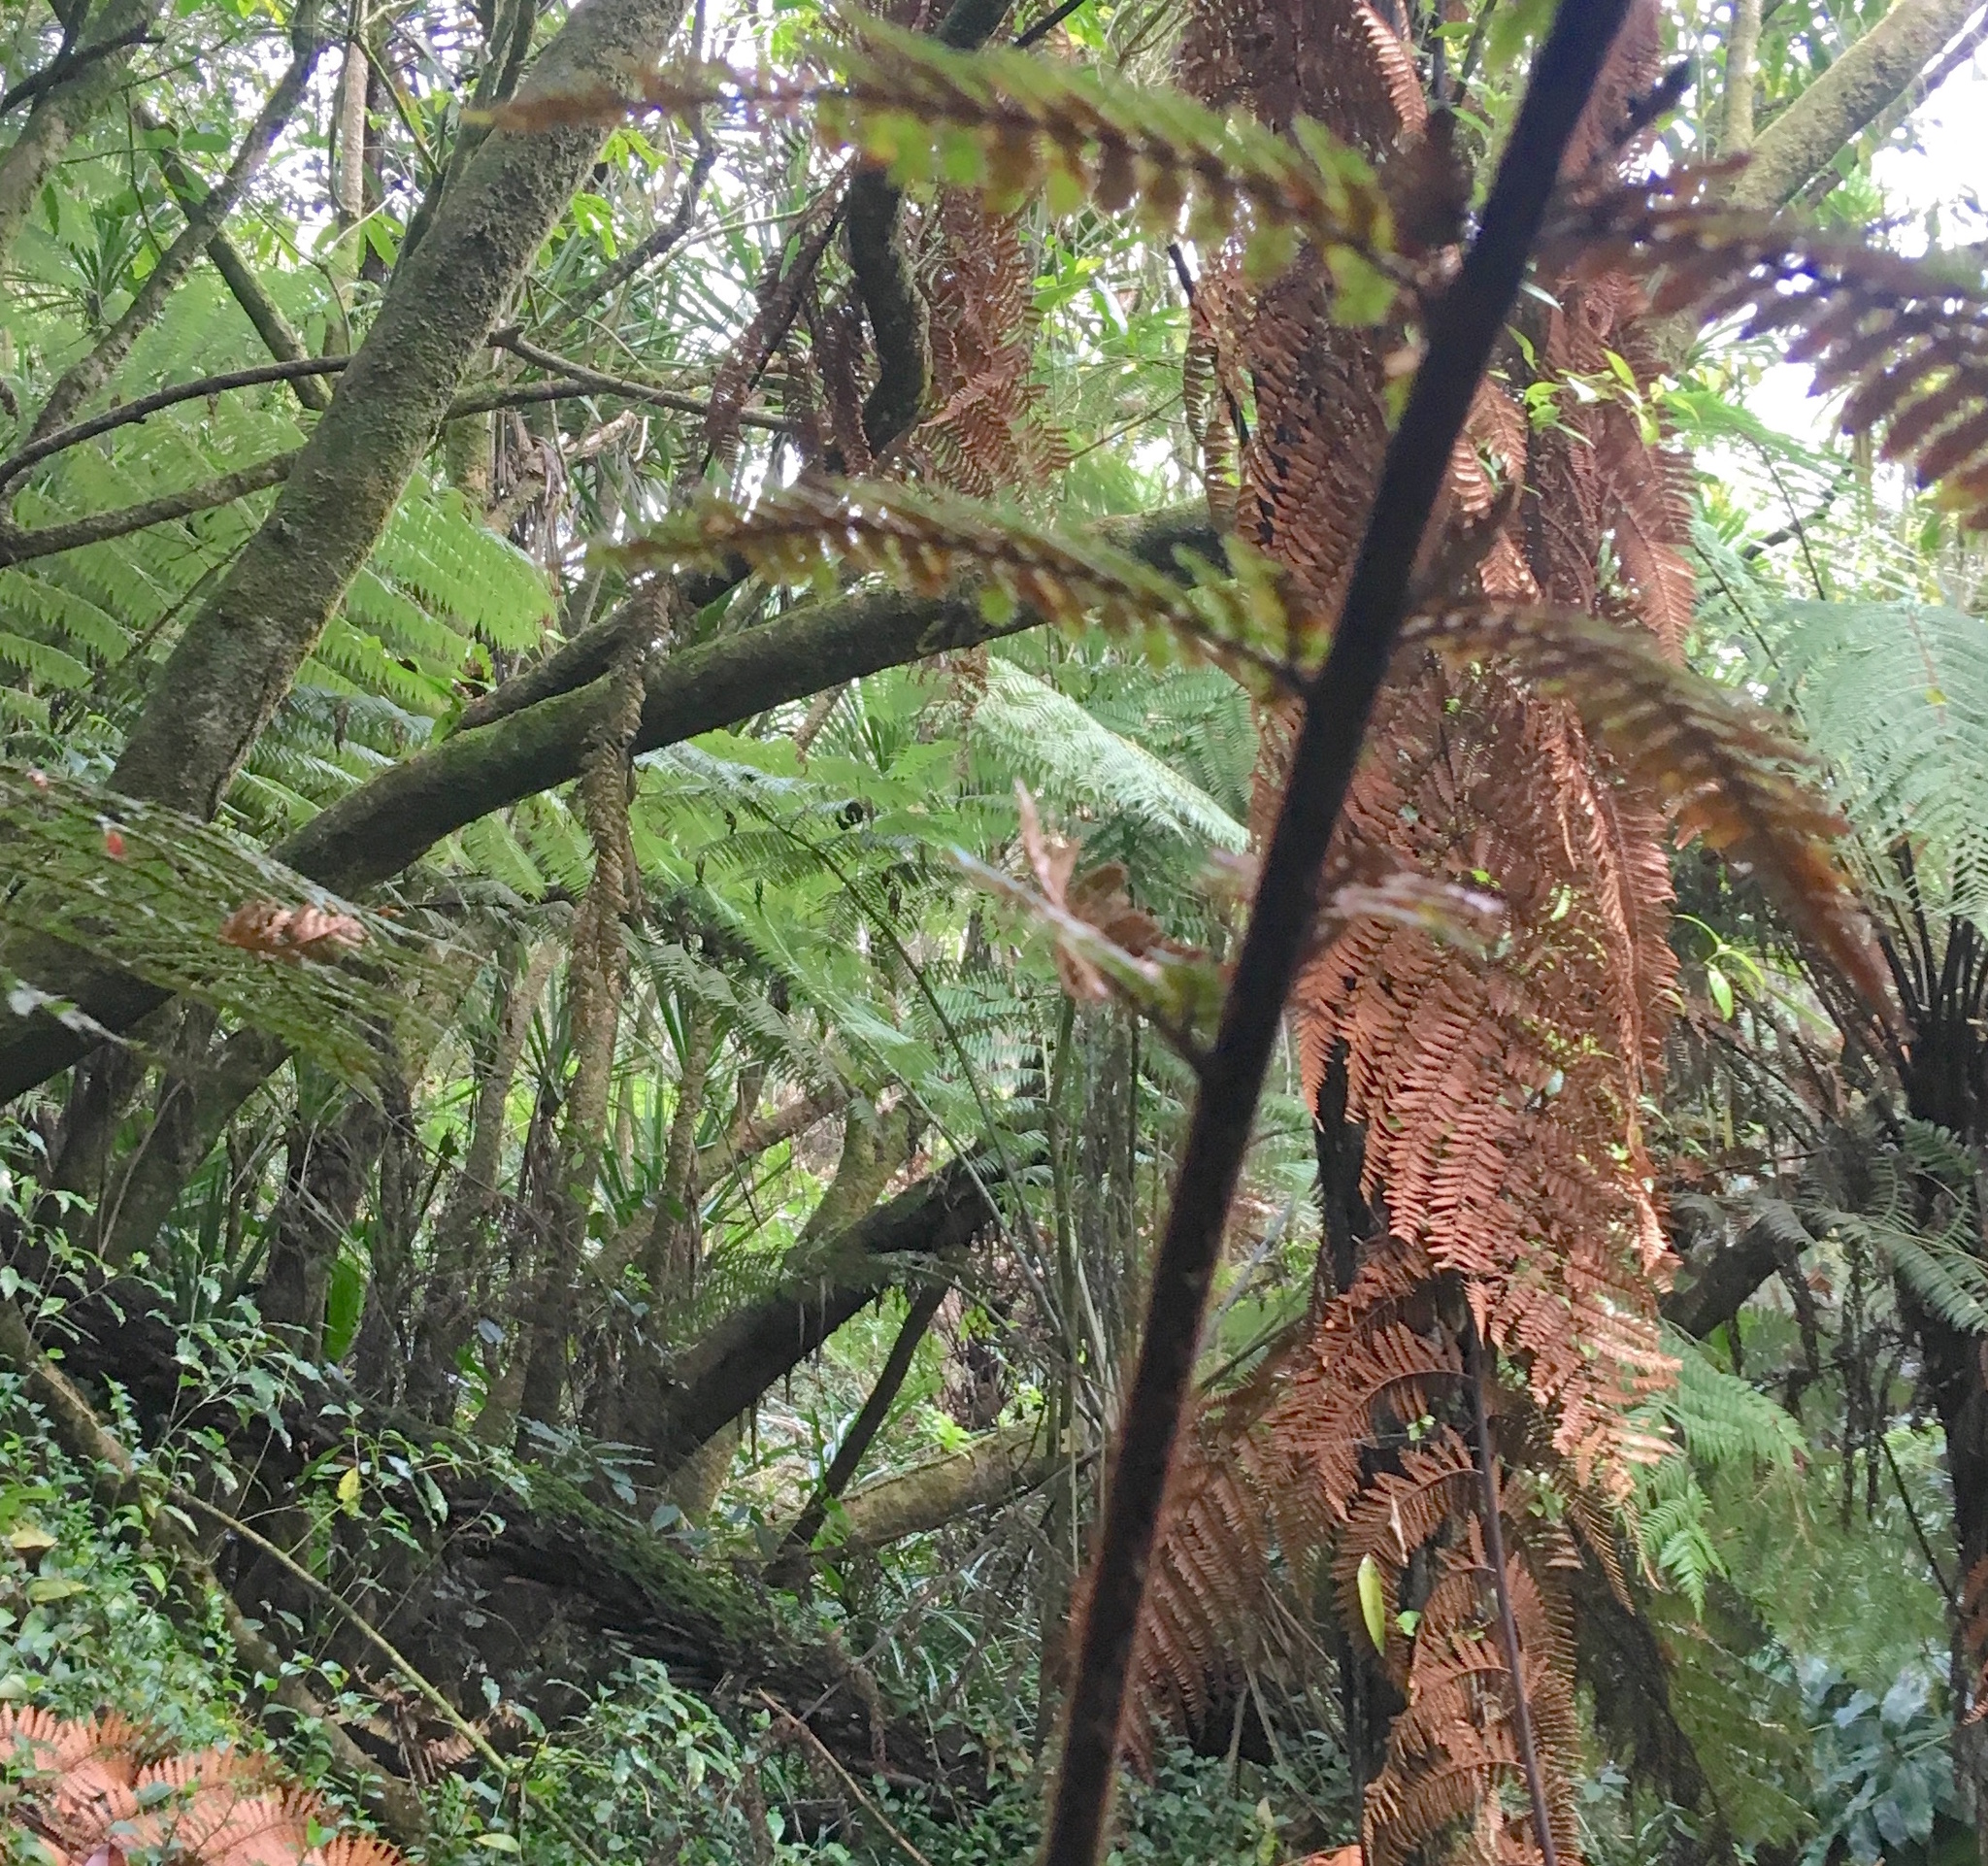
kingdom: Plantae
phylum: Tracheophyta
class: Liliopsida
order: Asparagales
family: Asparagaceae
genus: Cordyline
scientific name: Cordyline australis
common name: Cabbage-palm
